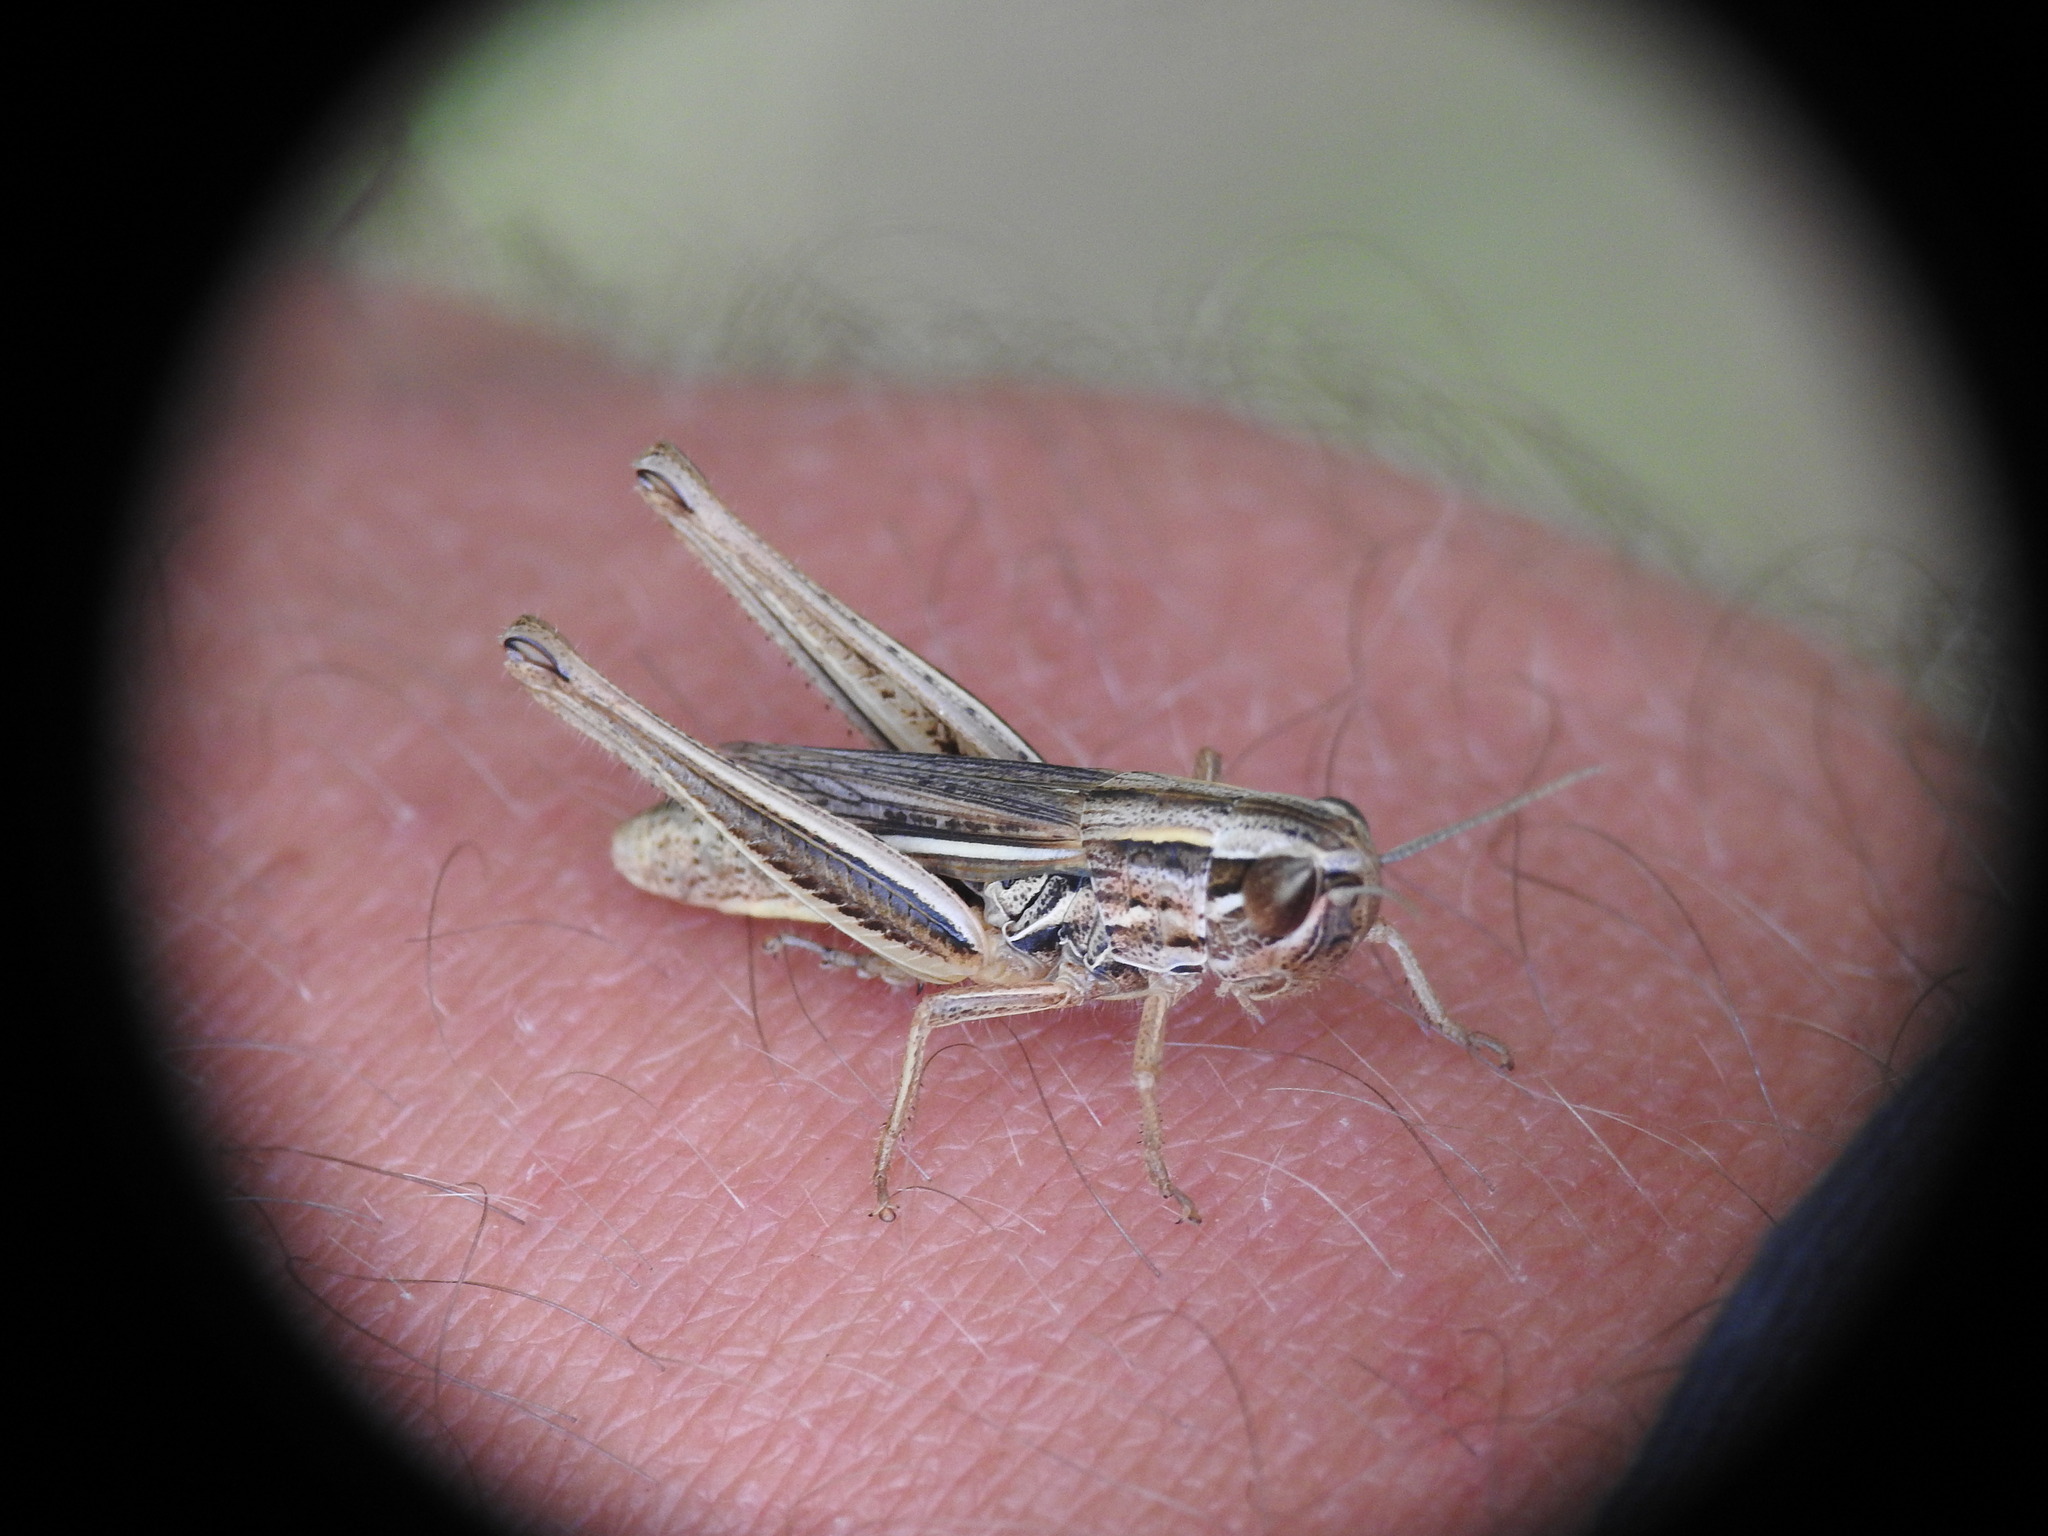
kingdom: Animalia
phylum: Arthropoda
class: Insecta
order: Orthoptera
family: Acrididae
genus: Euchorthippus
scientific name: Euchorthippus declivus
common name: Common straw grasshopper
